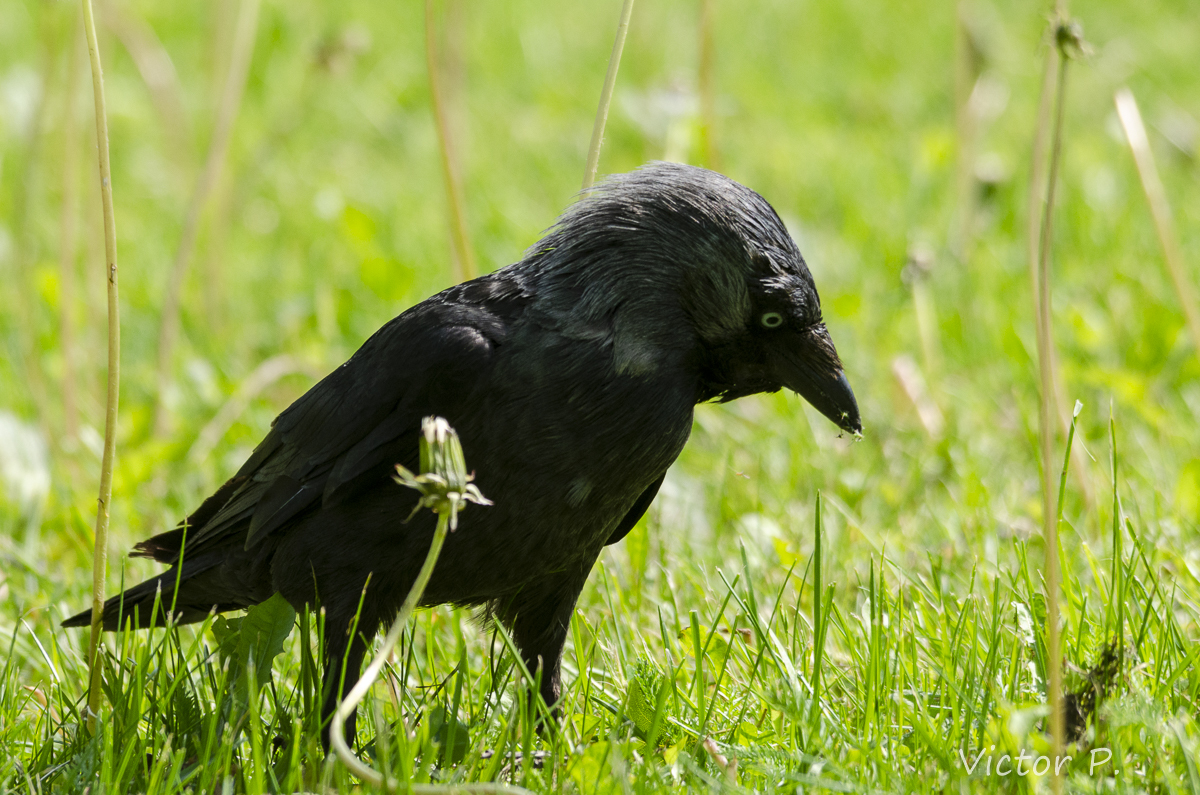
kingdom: Animalia
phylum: Chordata
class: Aves
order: Passeriformes
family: Corvidae
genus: Coloeus
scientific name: Coloeus monedula
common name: Western jackdaw
